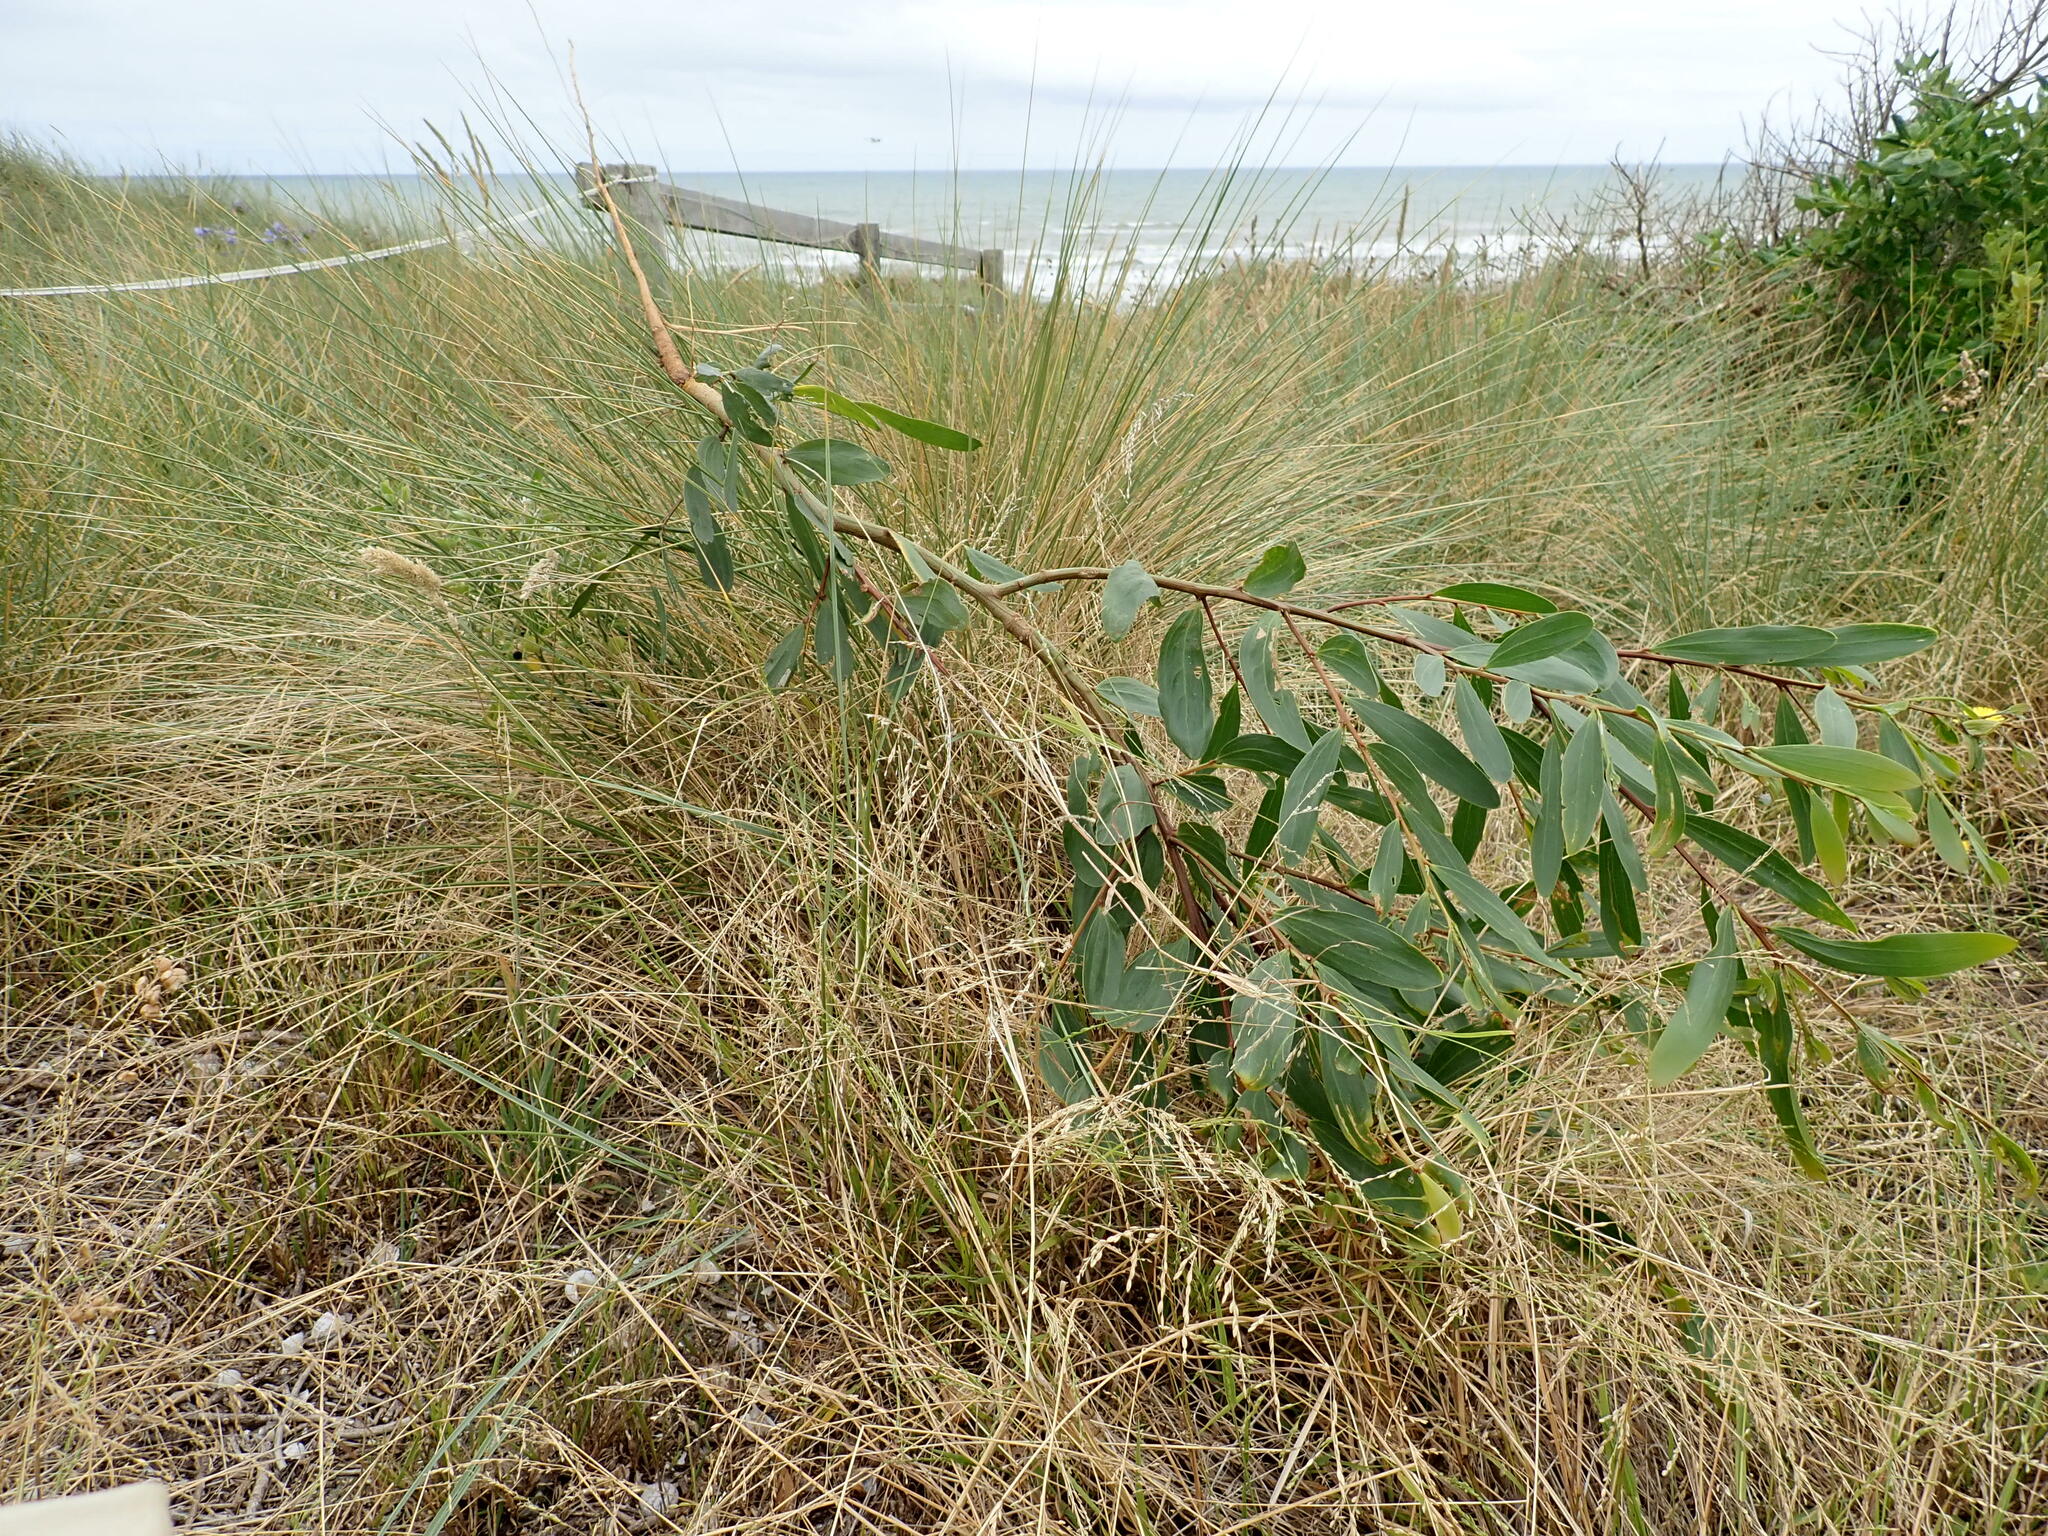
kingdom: Plantae
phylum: Tracheophyta
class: Magnoliopsida
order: Fabales
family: Fabaceae
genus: Acacia
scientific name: Acacia longifolia
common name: Sydney golden wattle
